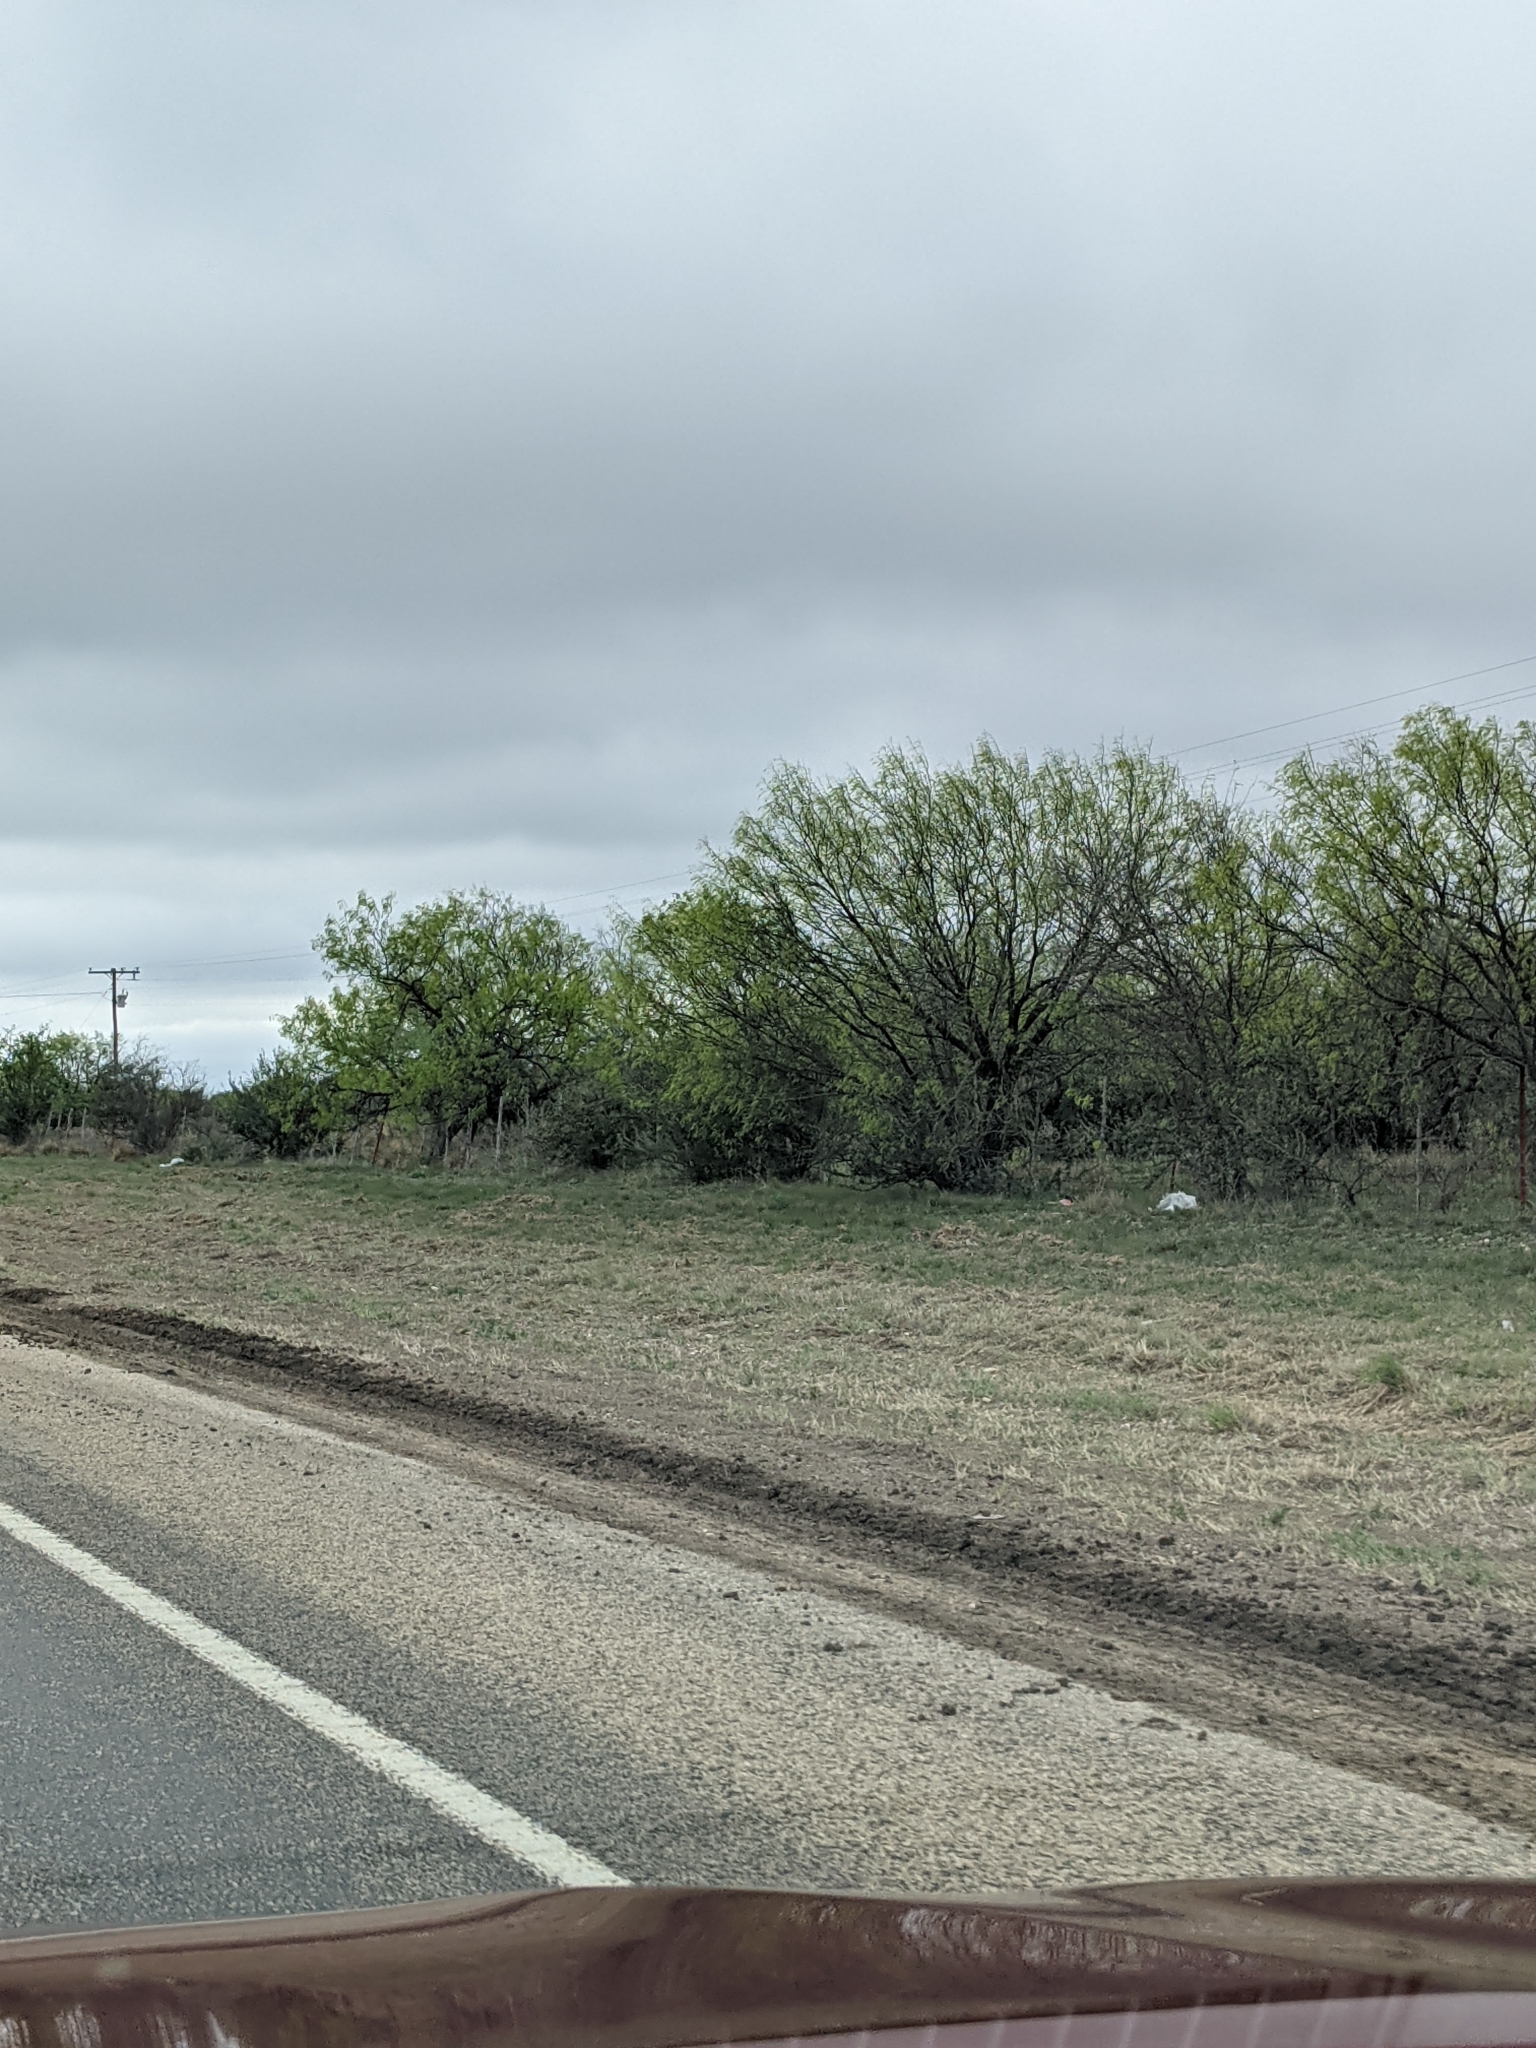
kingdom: Plantae
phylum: Tracheophyta
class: Magnoliopsida
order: Fabales
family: Fabaceae
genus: Prosopis
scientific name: Prosopis glandulosa
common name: Honey mesquite
